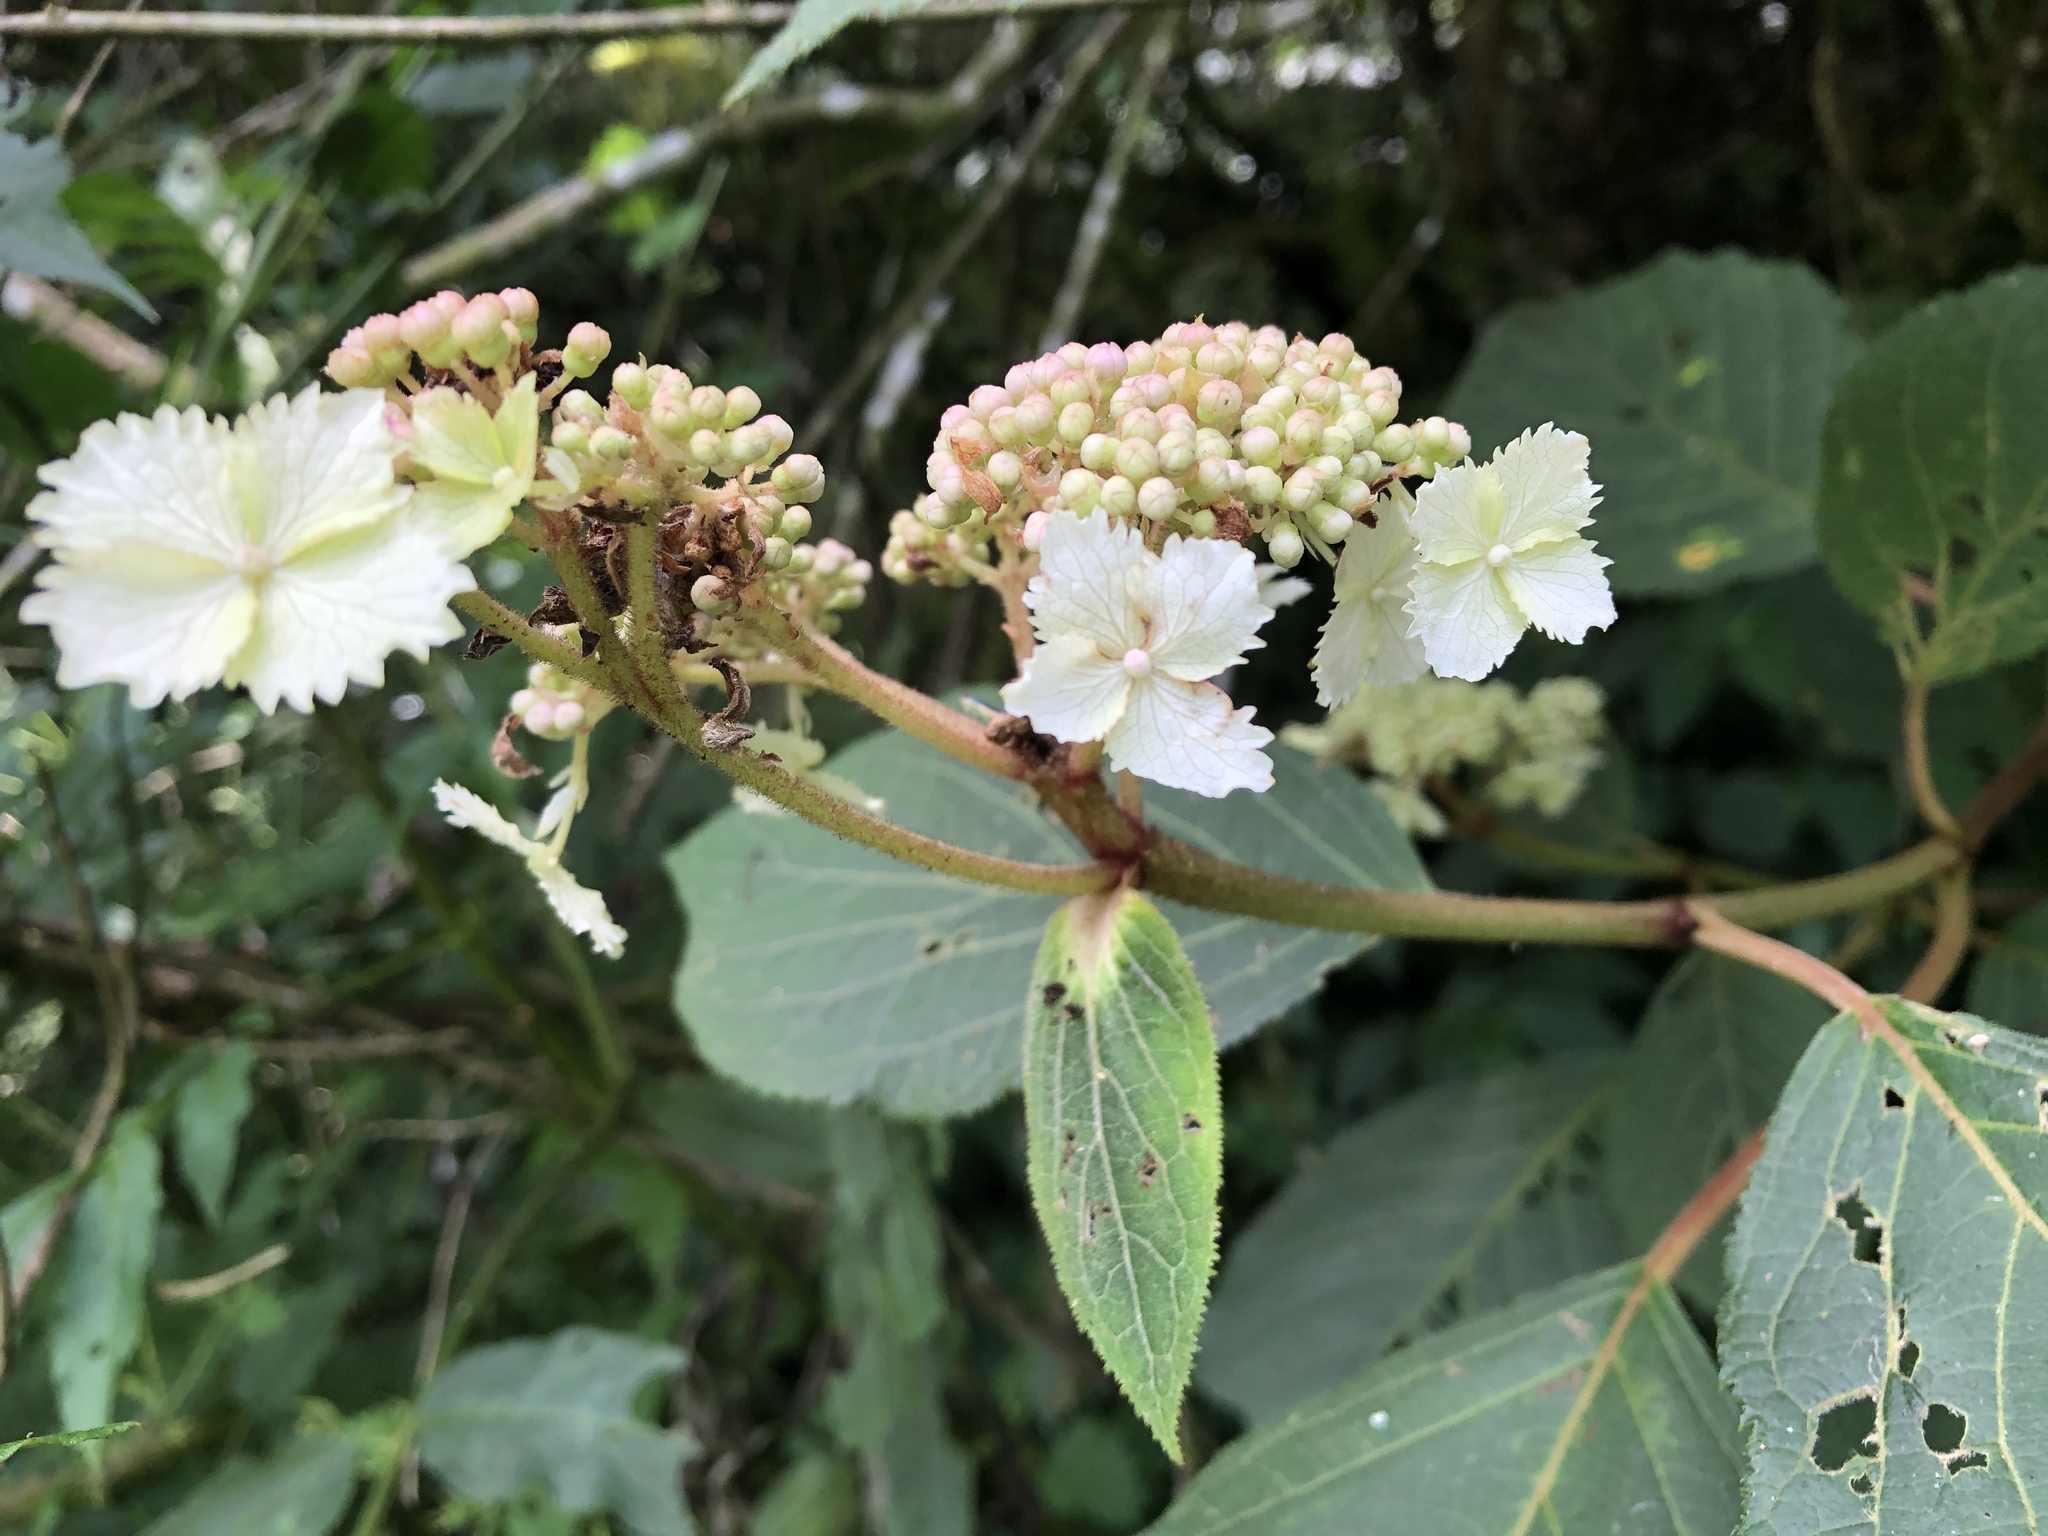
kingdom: Plantae
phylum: Tracheophyta
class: Magnoliopsida
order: Cornales
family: Hydrangeaceae
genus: Hydrangea
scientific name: Hydrangea aspera
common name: Rough-leaf hydrangea
